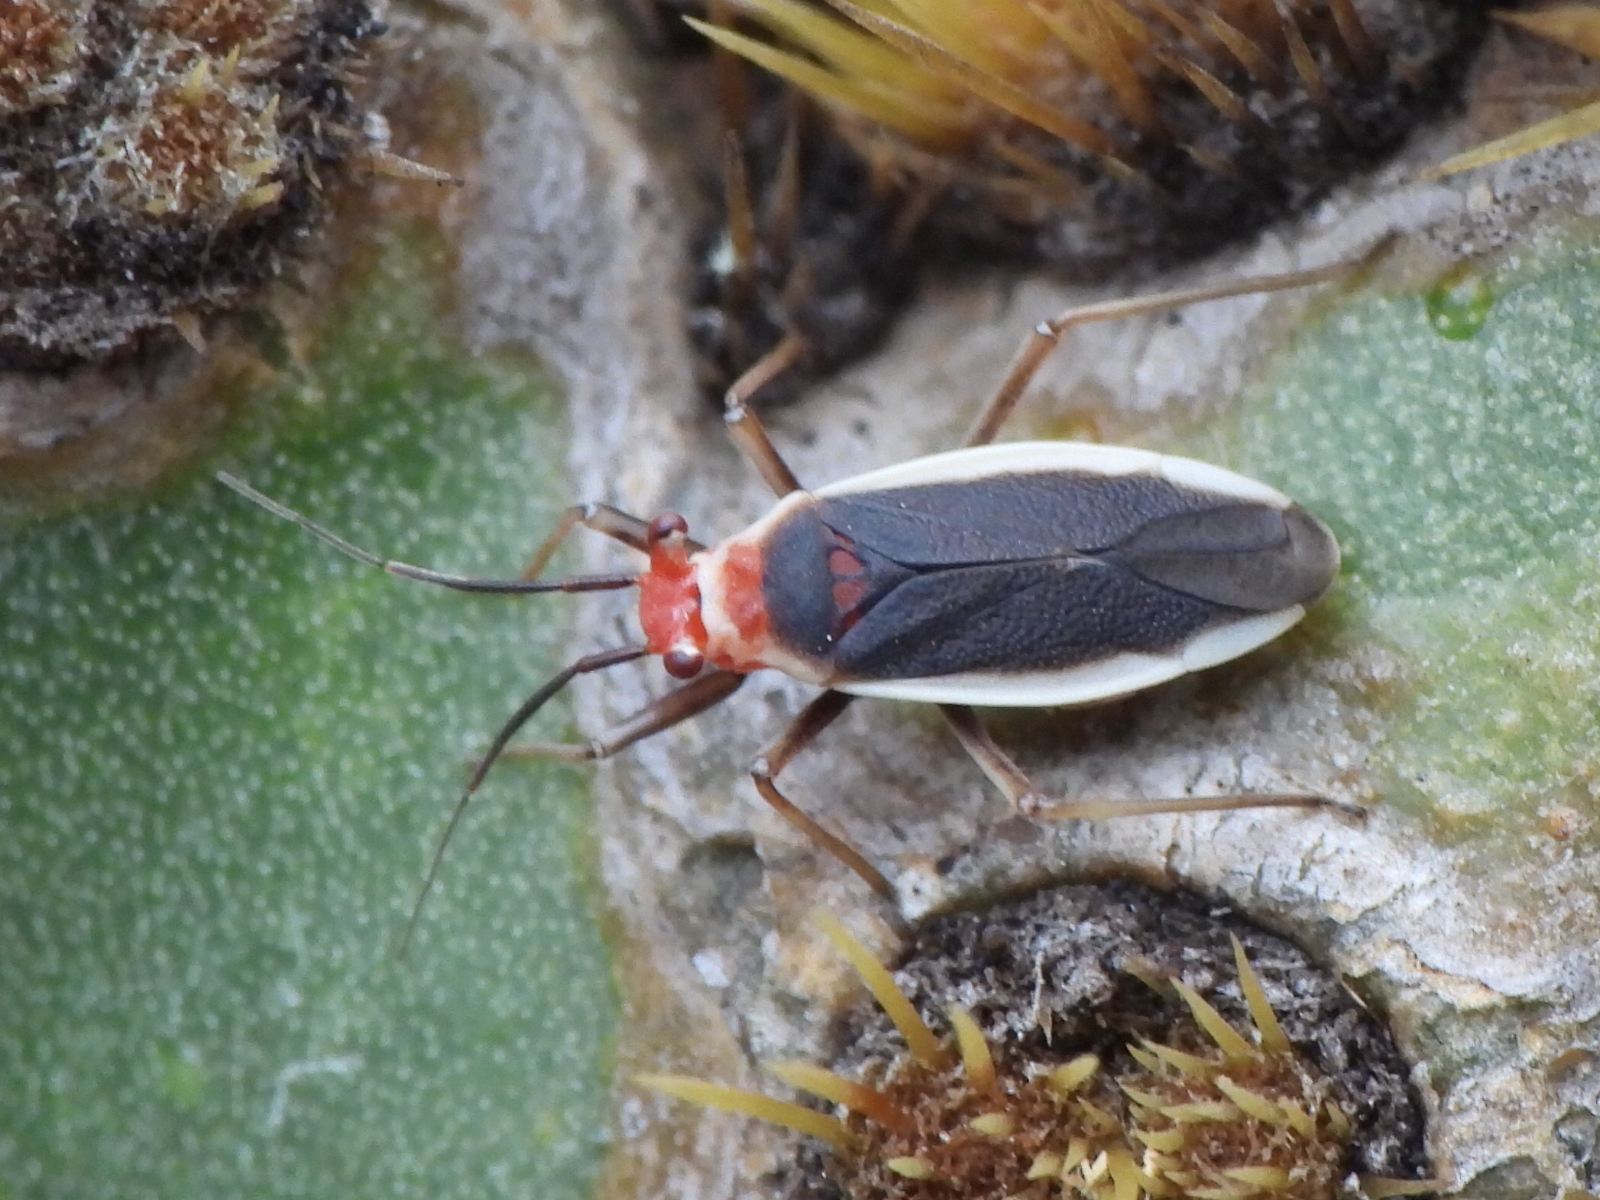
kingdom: Animalia
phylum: Arthropoda
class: Insecta
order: Hemiptera
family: Miridae
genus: Hesperolabops
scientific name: Hesperolabops gelastops
